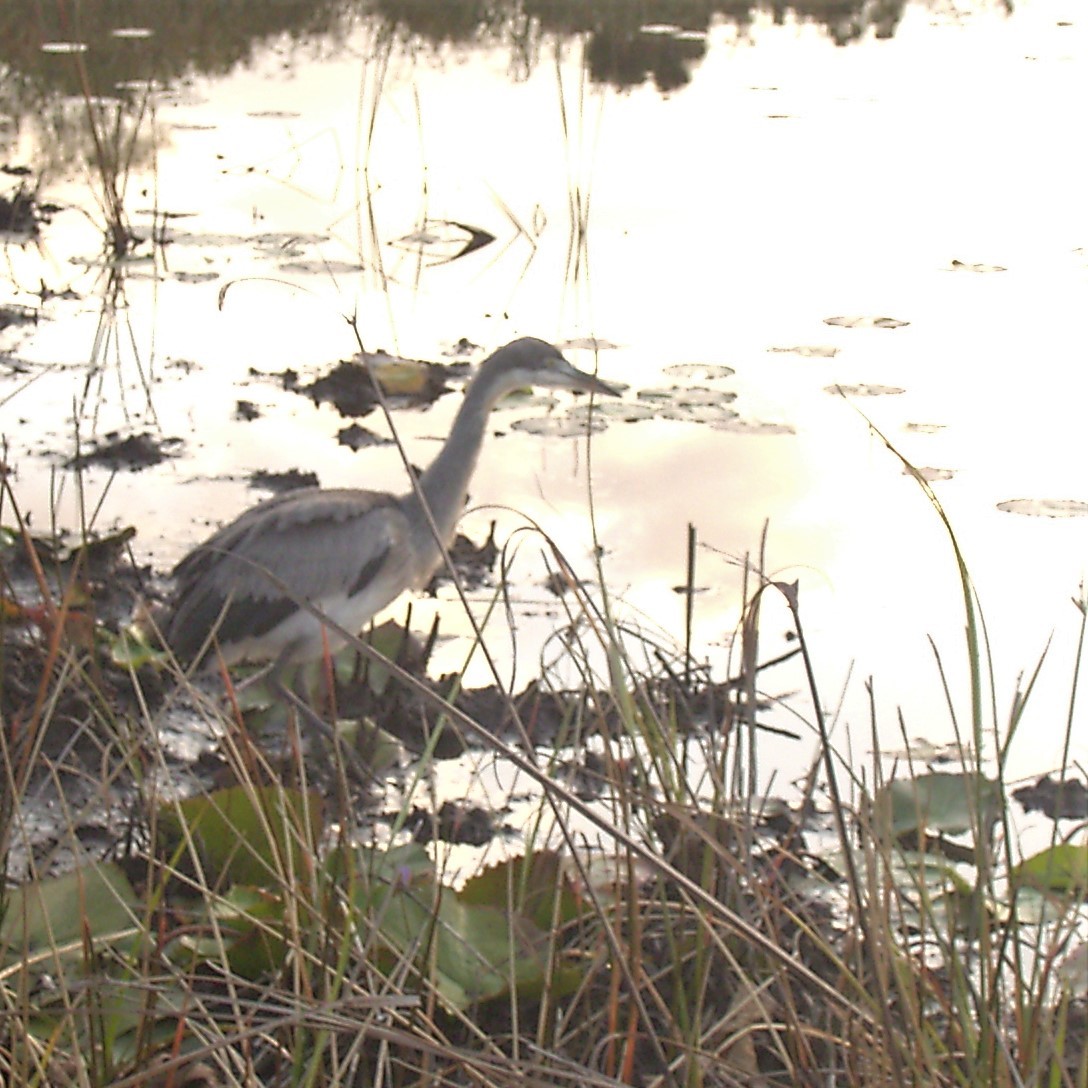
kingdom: Animalia
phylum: Chordata
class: Aves
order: Pelecaniformes
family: Ardeidae
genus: Ardea
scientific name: Ardea melanocephala
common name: Black-headed heron
